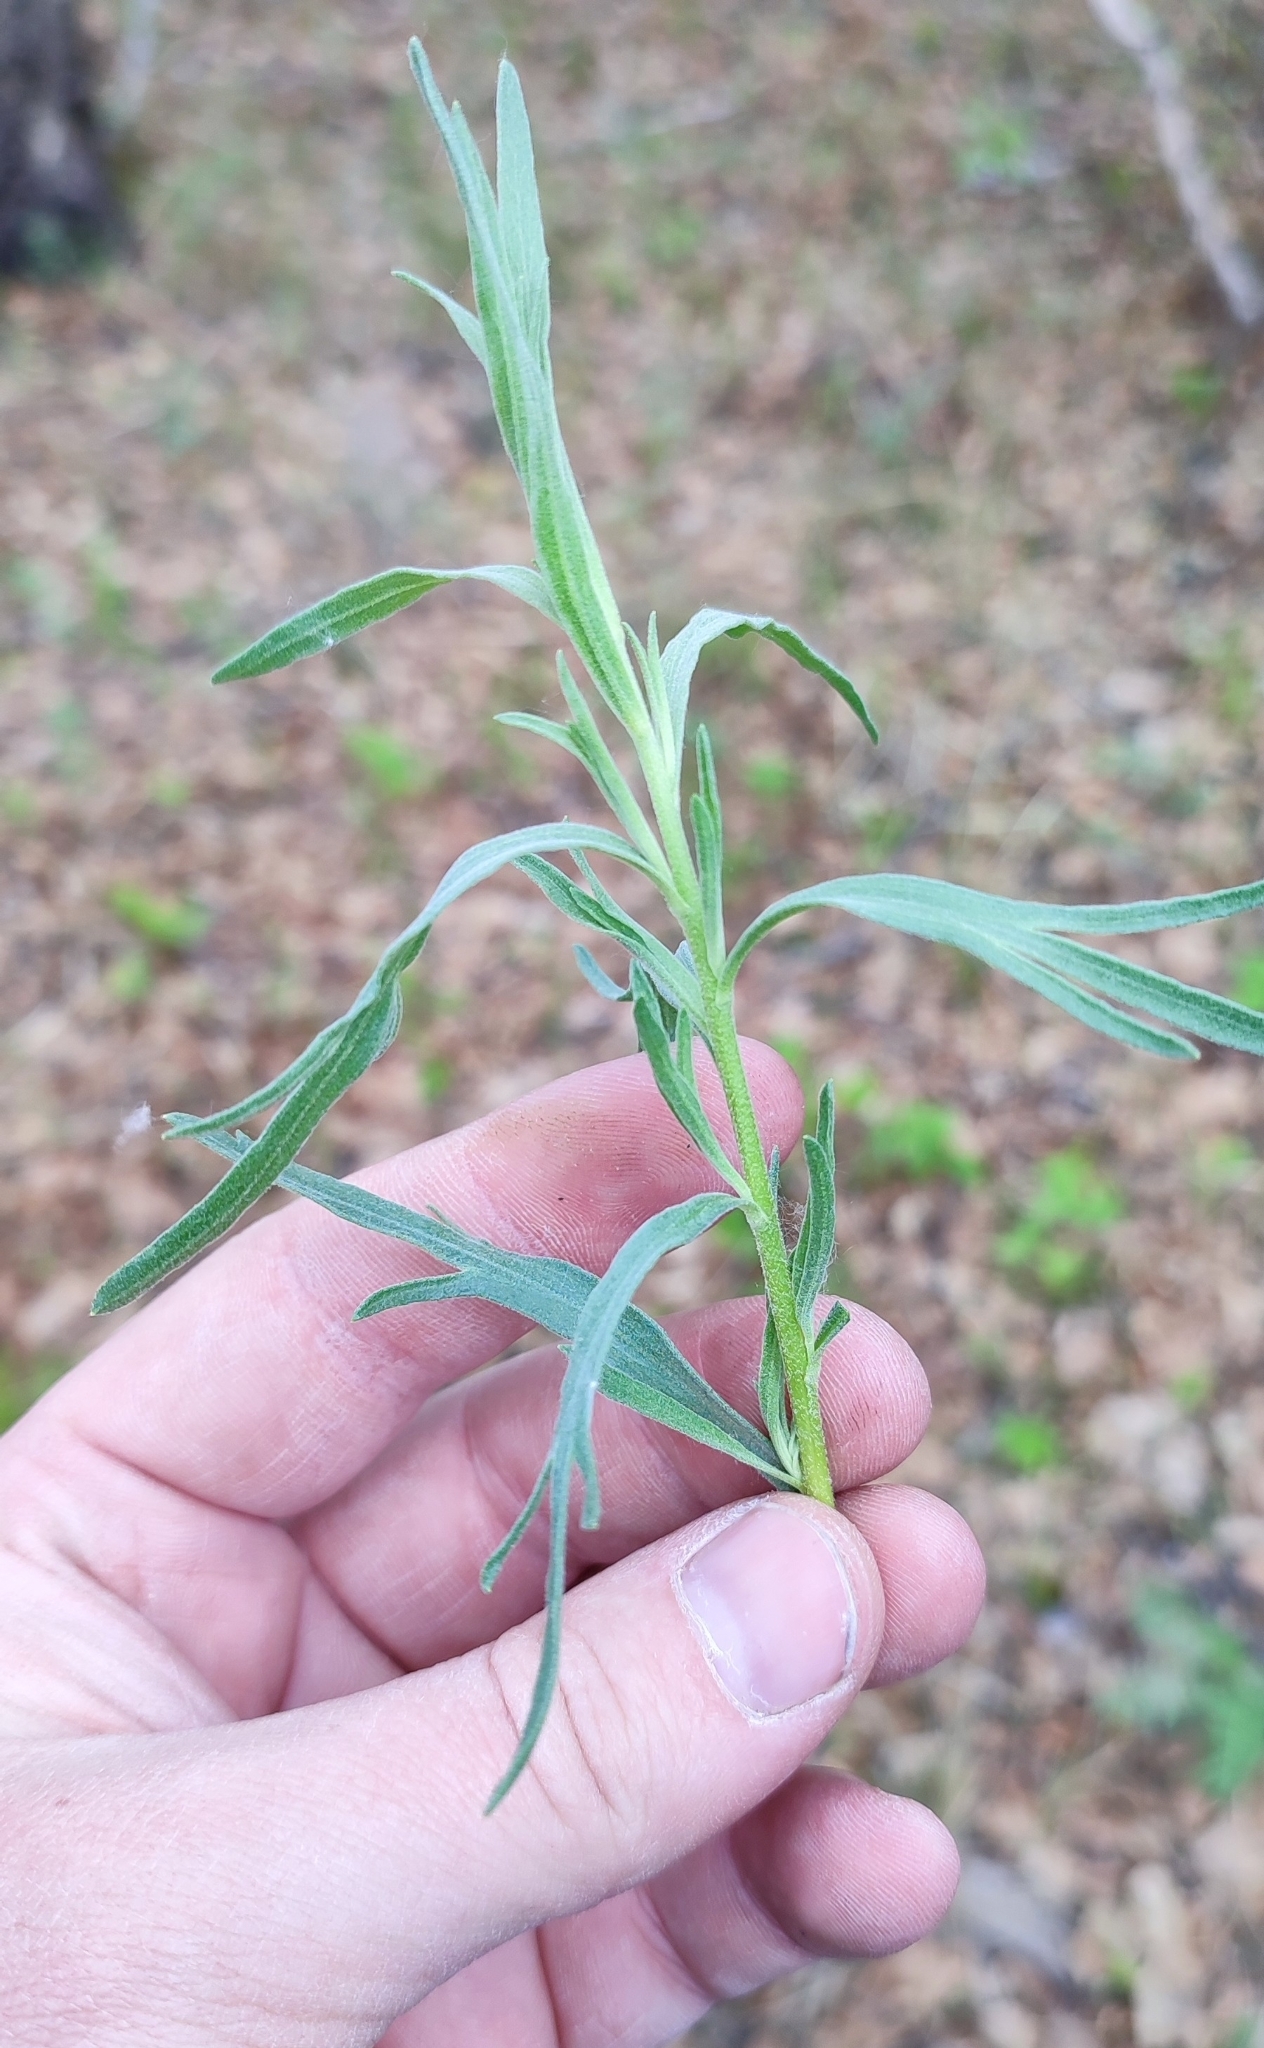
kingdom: Plantae
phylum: Tracheophyta
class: Magnoliopsida
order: Asterales
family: Asteraceae
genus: Artemisia
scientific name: Artemisia glauca
